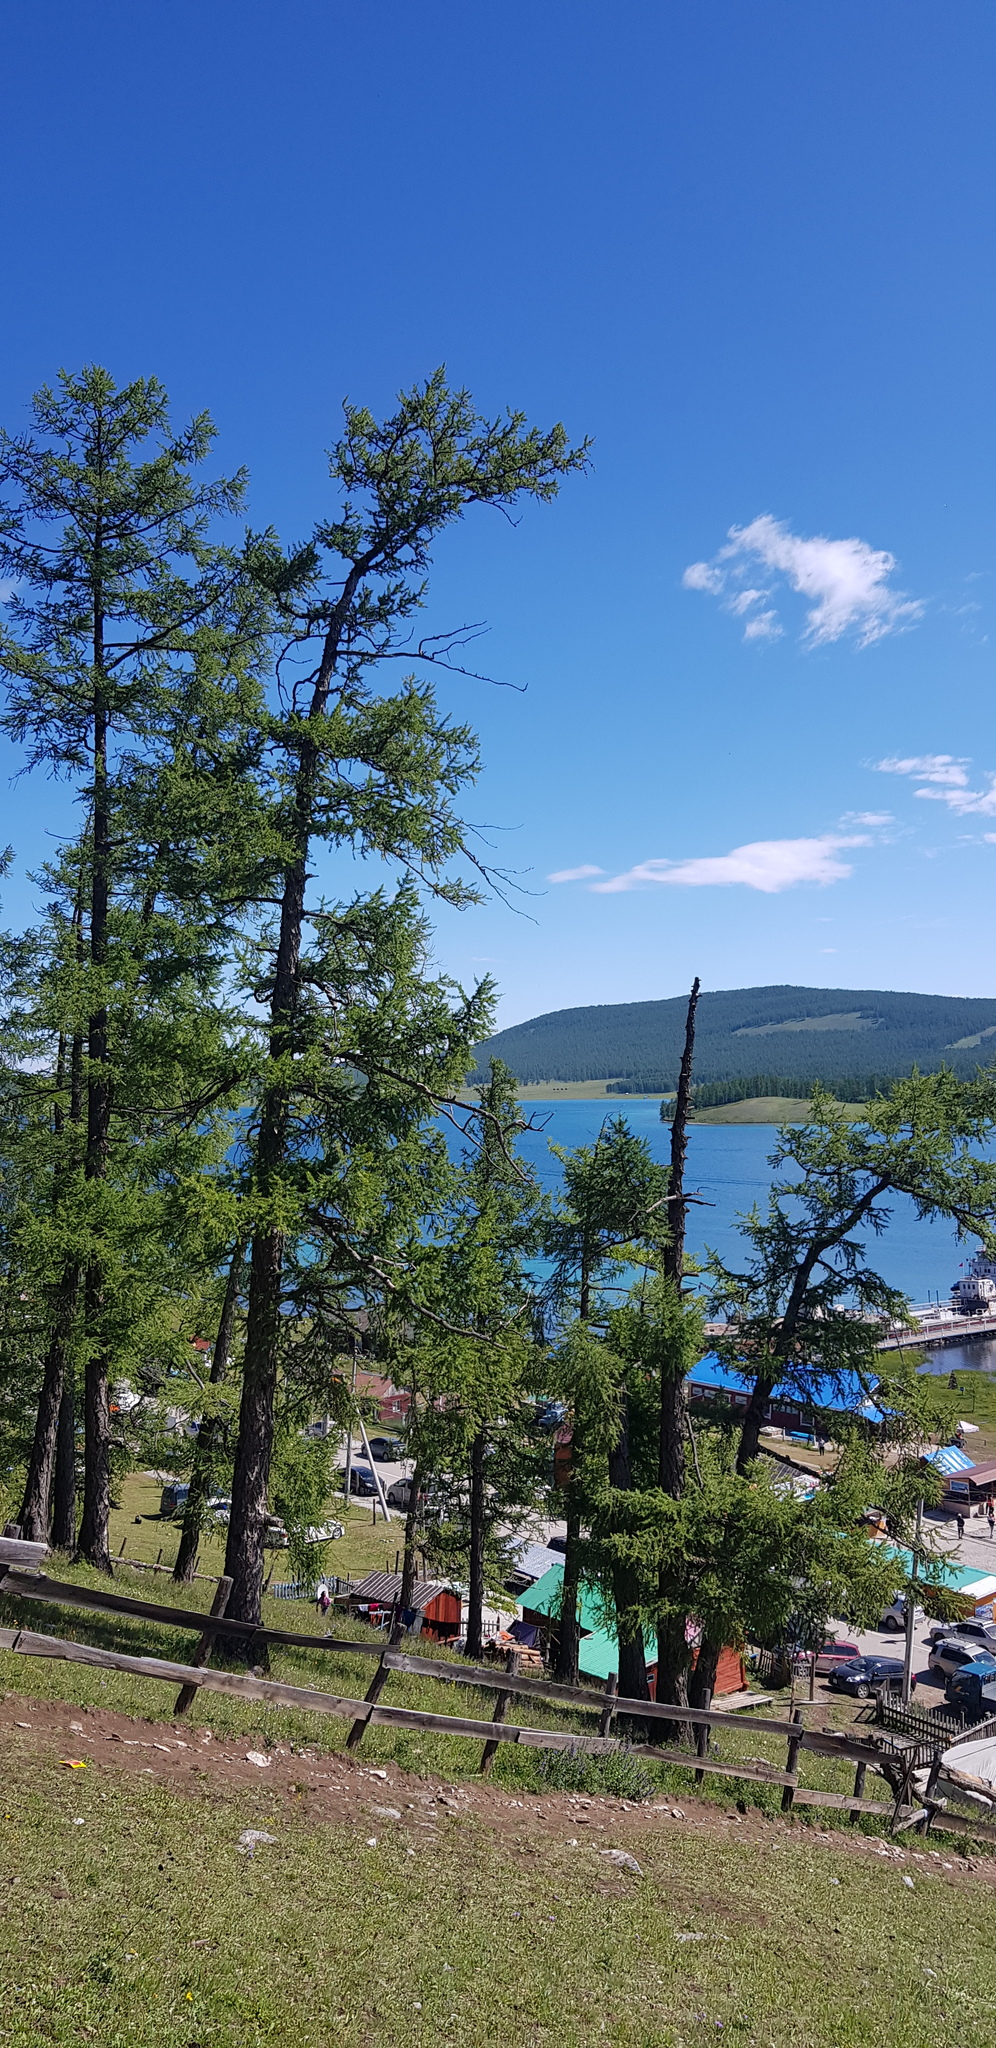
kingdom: Plantae
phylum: Tracheophyta
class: Pinopsida
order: Pinales
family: Pinaceae
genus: Larix
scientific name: Larix sibirica
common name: Siberian larch
